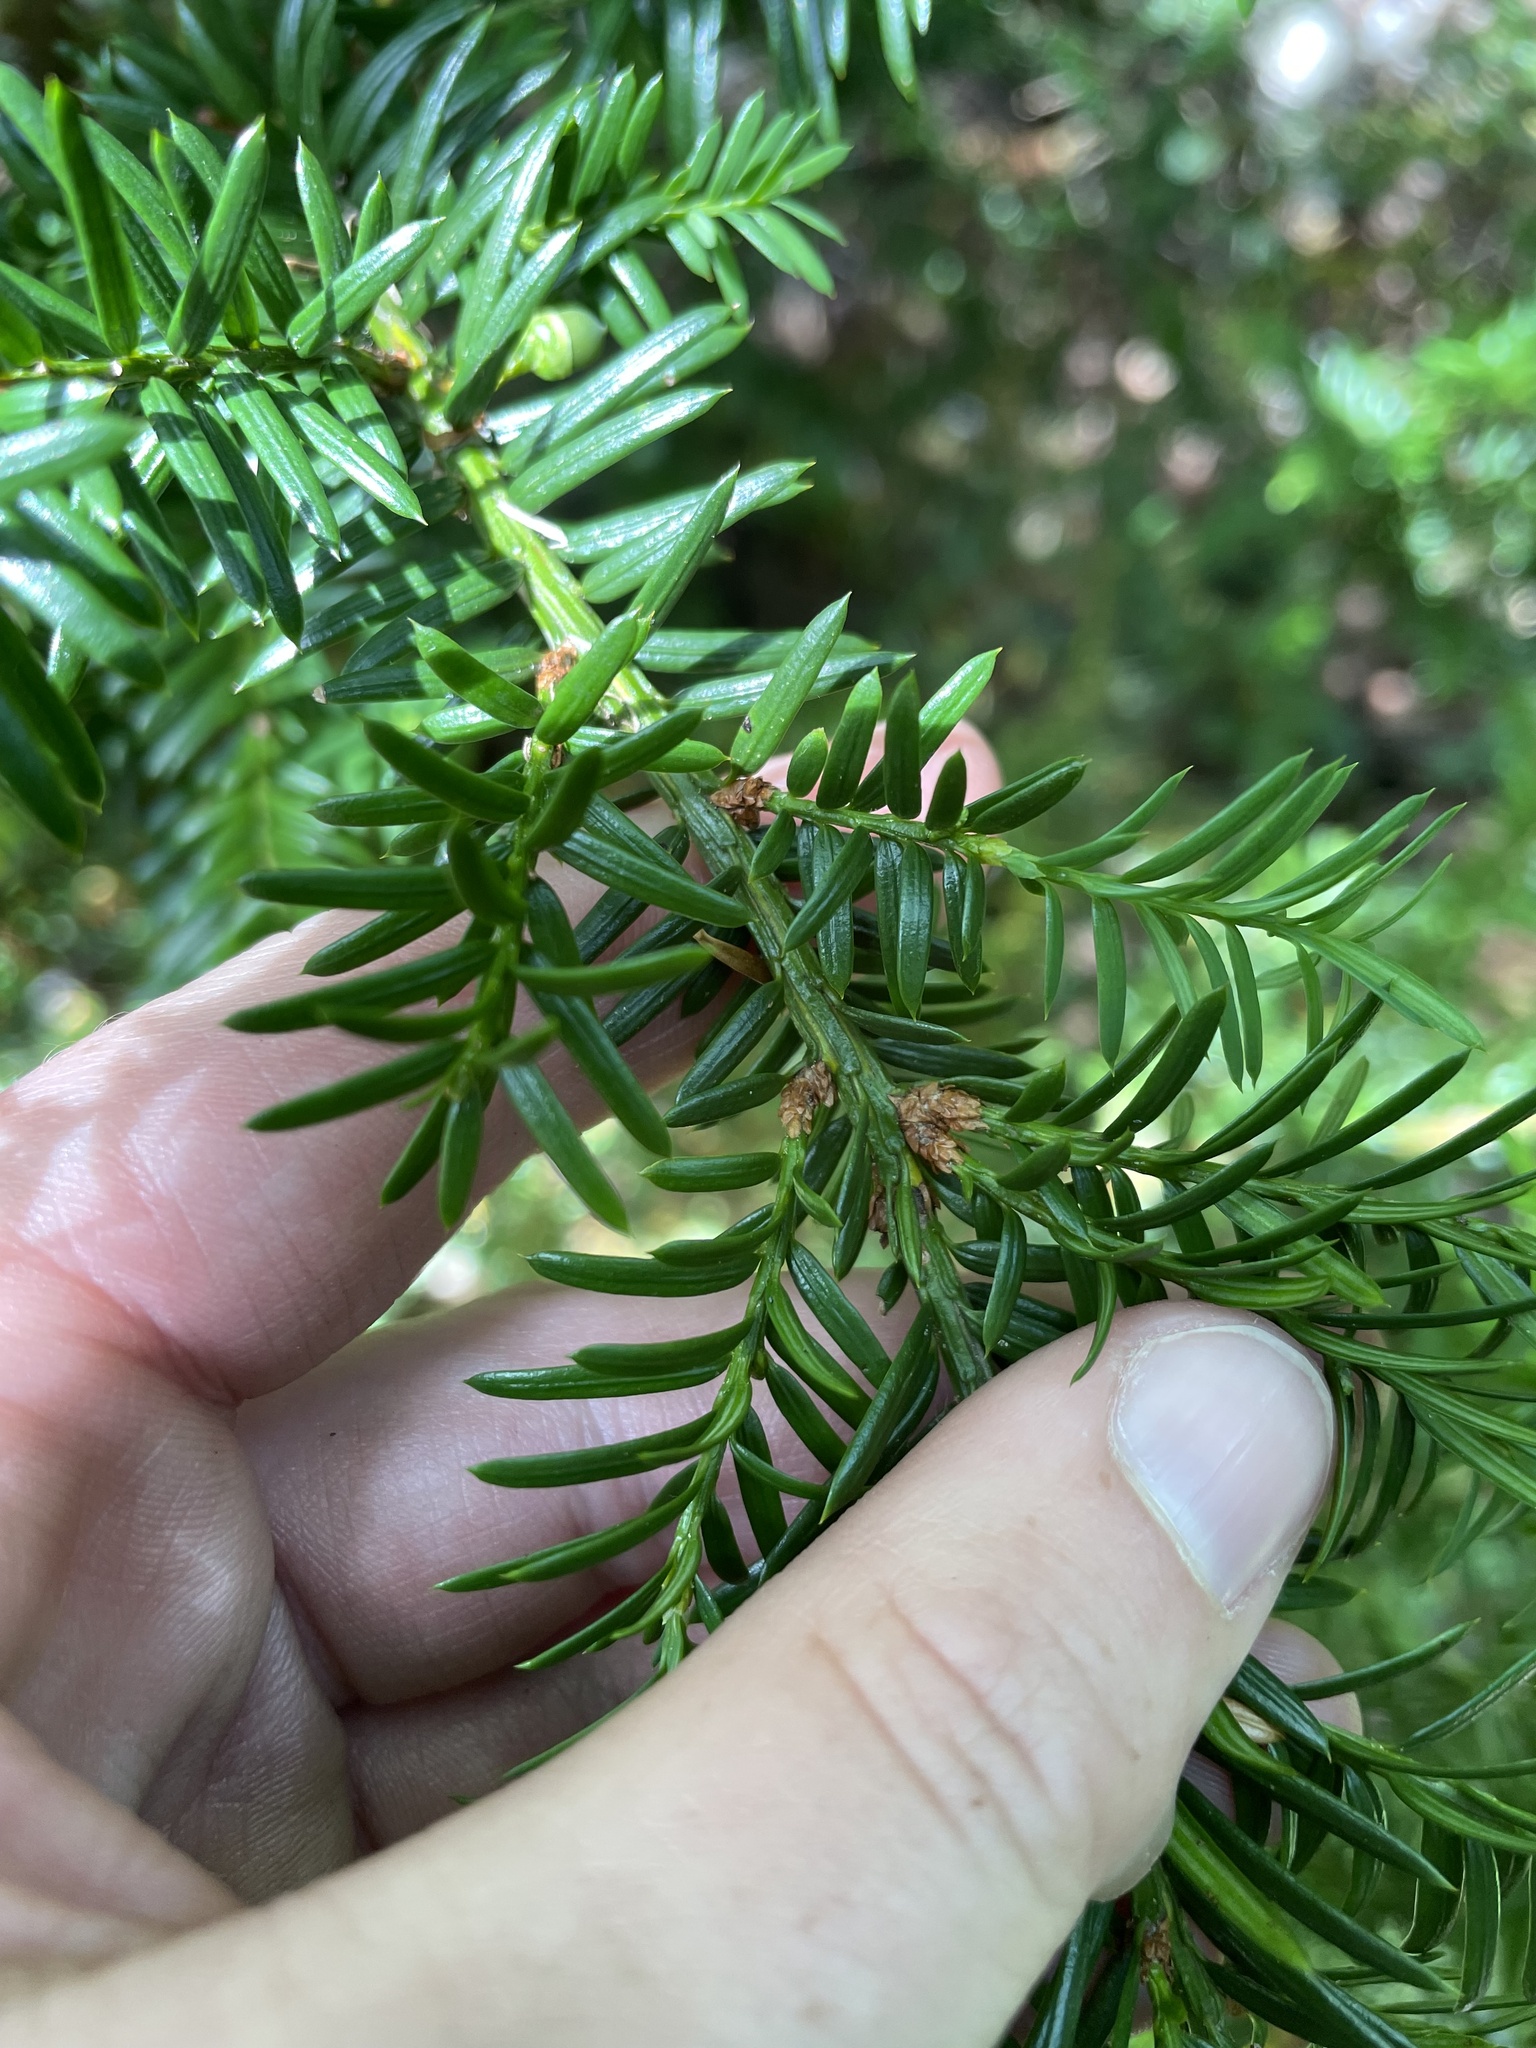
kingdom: Plantae
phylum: Tracheophyta
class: Pinopsida
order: Pinales
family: Taxaceae
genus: Taxus
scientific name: Taxus canadensis
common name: American yew
